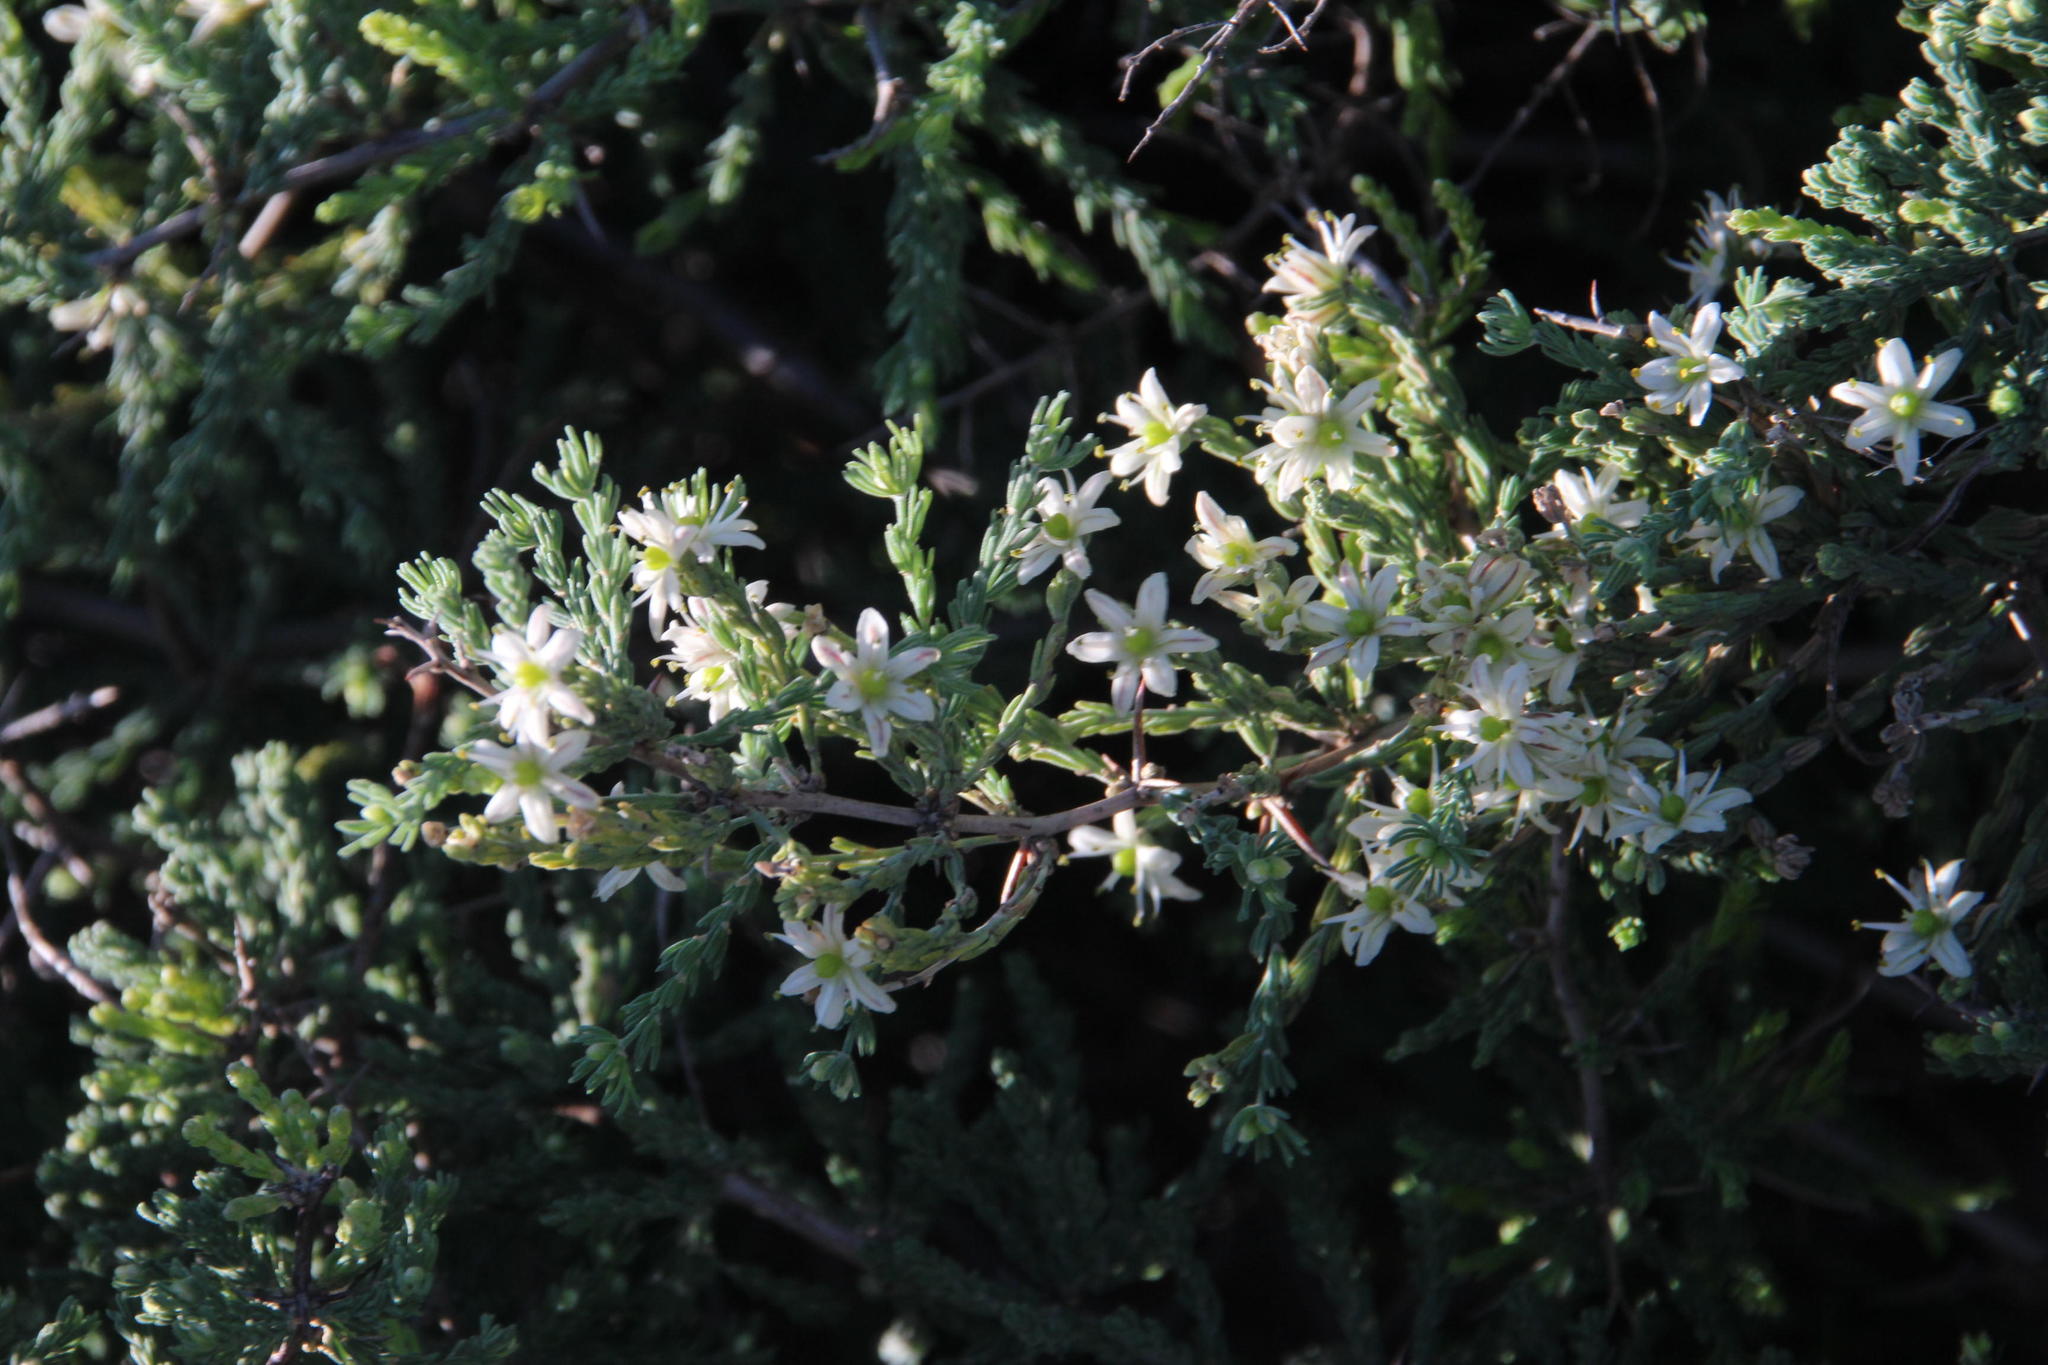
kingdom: Plantae
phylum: Tracheophyta
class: Liliopsida
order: Asparagales
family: Asparagaceae
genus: Asparagus
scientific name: Asparagus capensis
